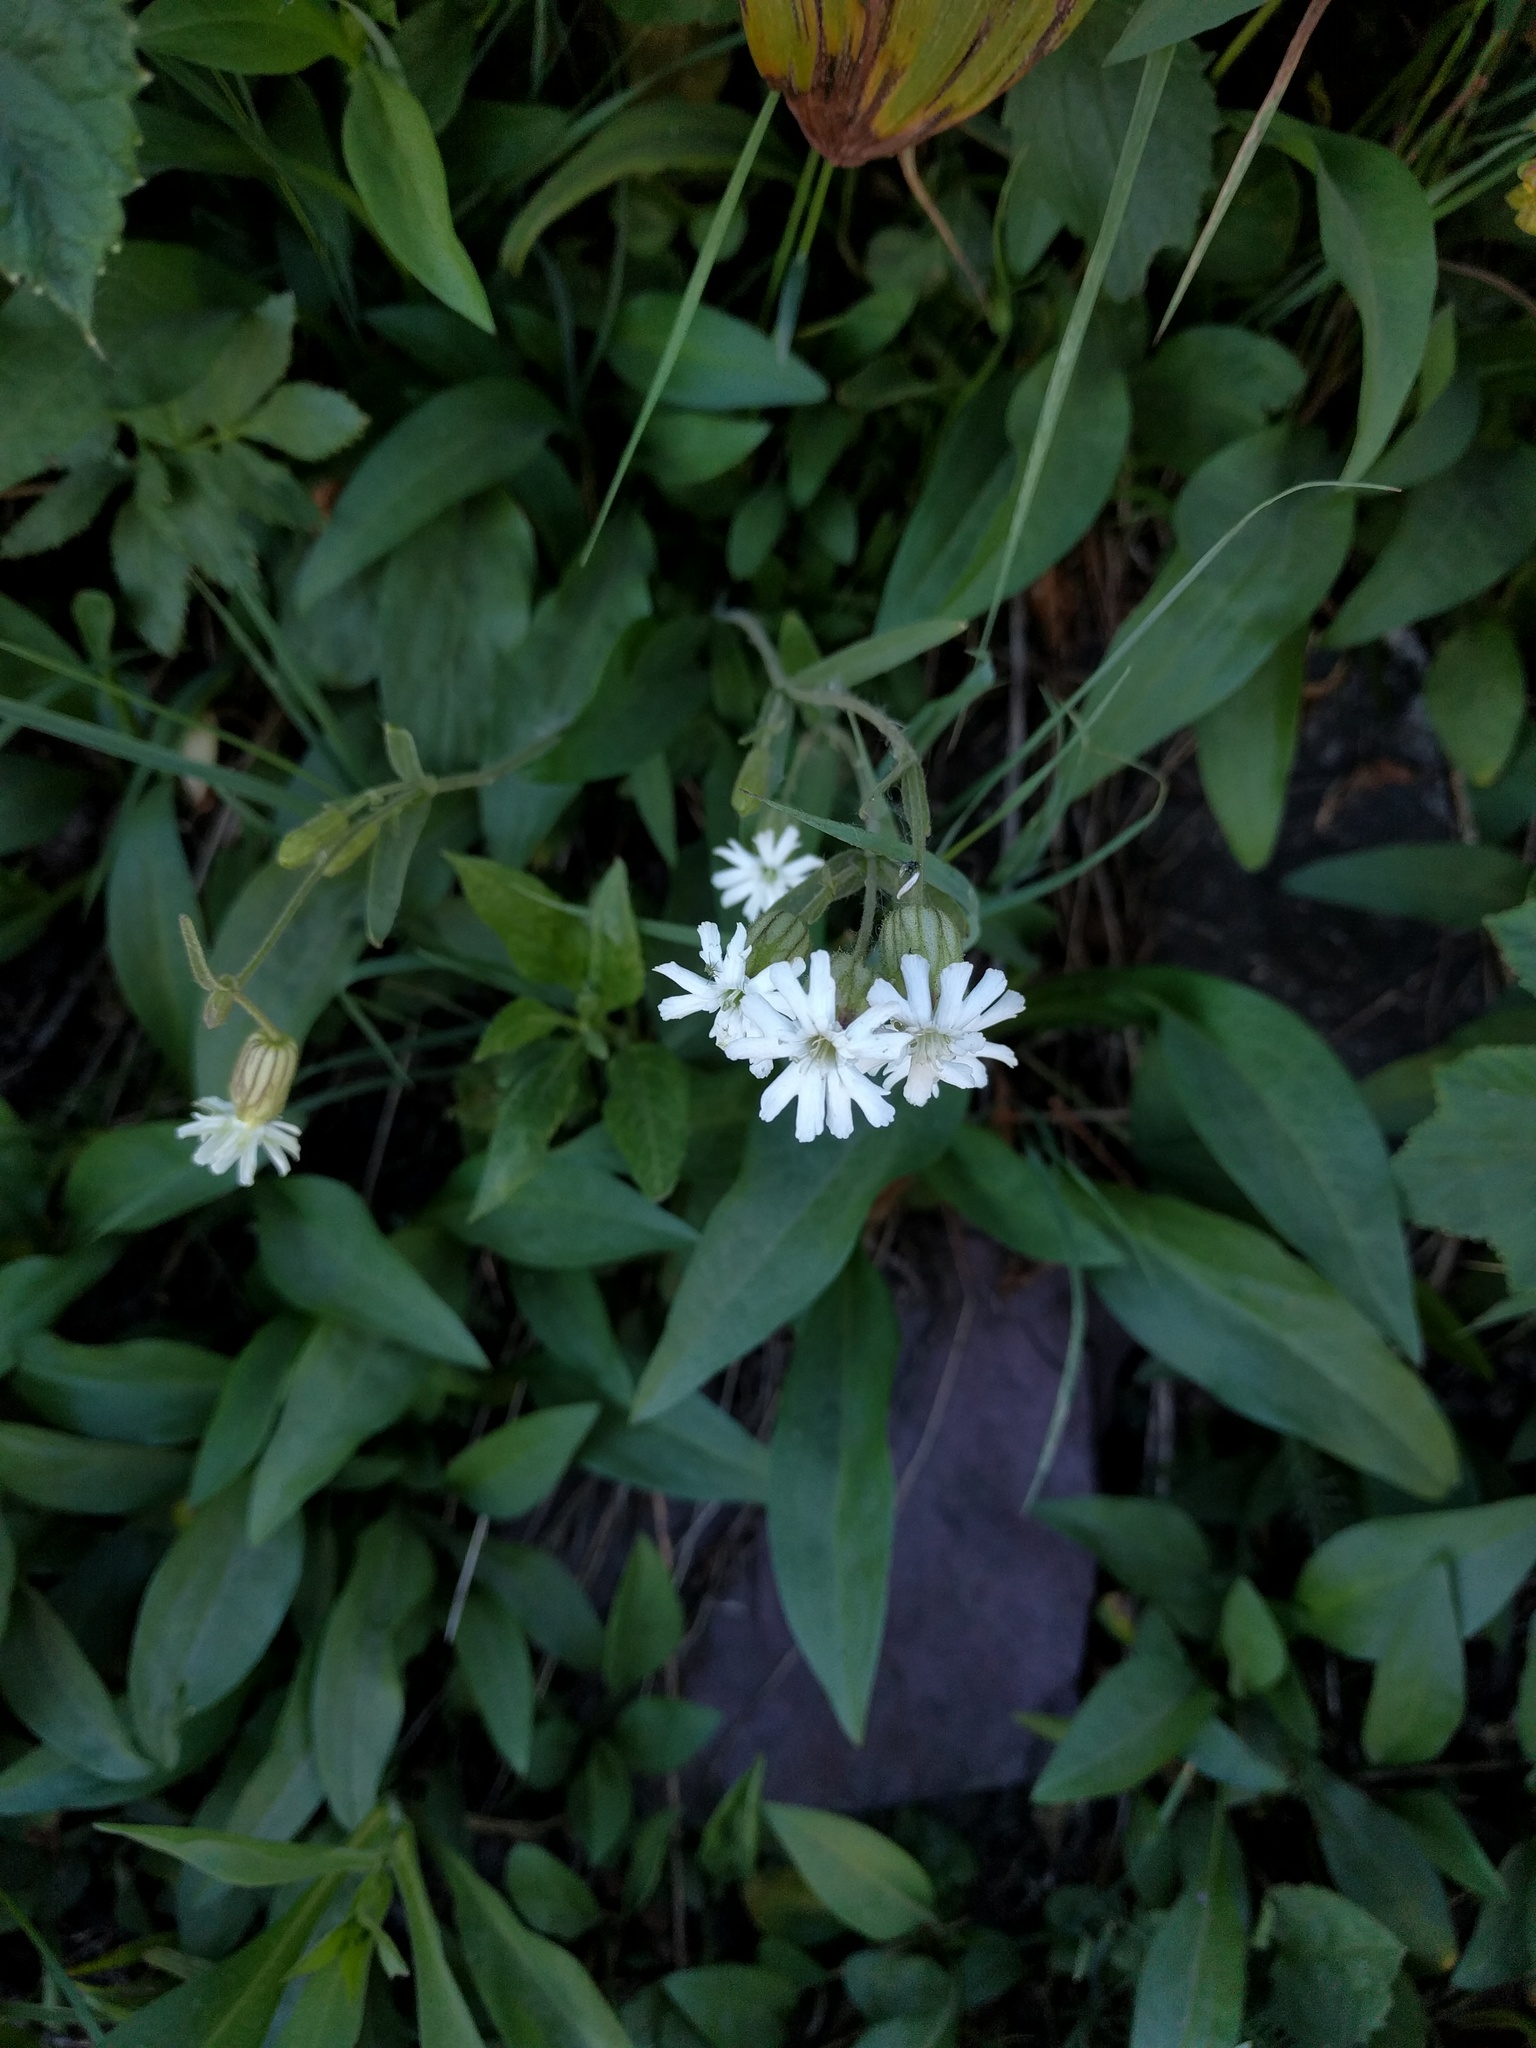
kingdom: Plantae
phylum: Tracheophyta
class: Magnoliopsida
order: Caryophyllales
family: Caryophyllaceae
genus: Silene
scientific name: Silene latifolia
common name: White campion
